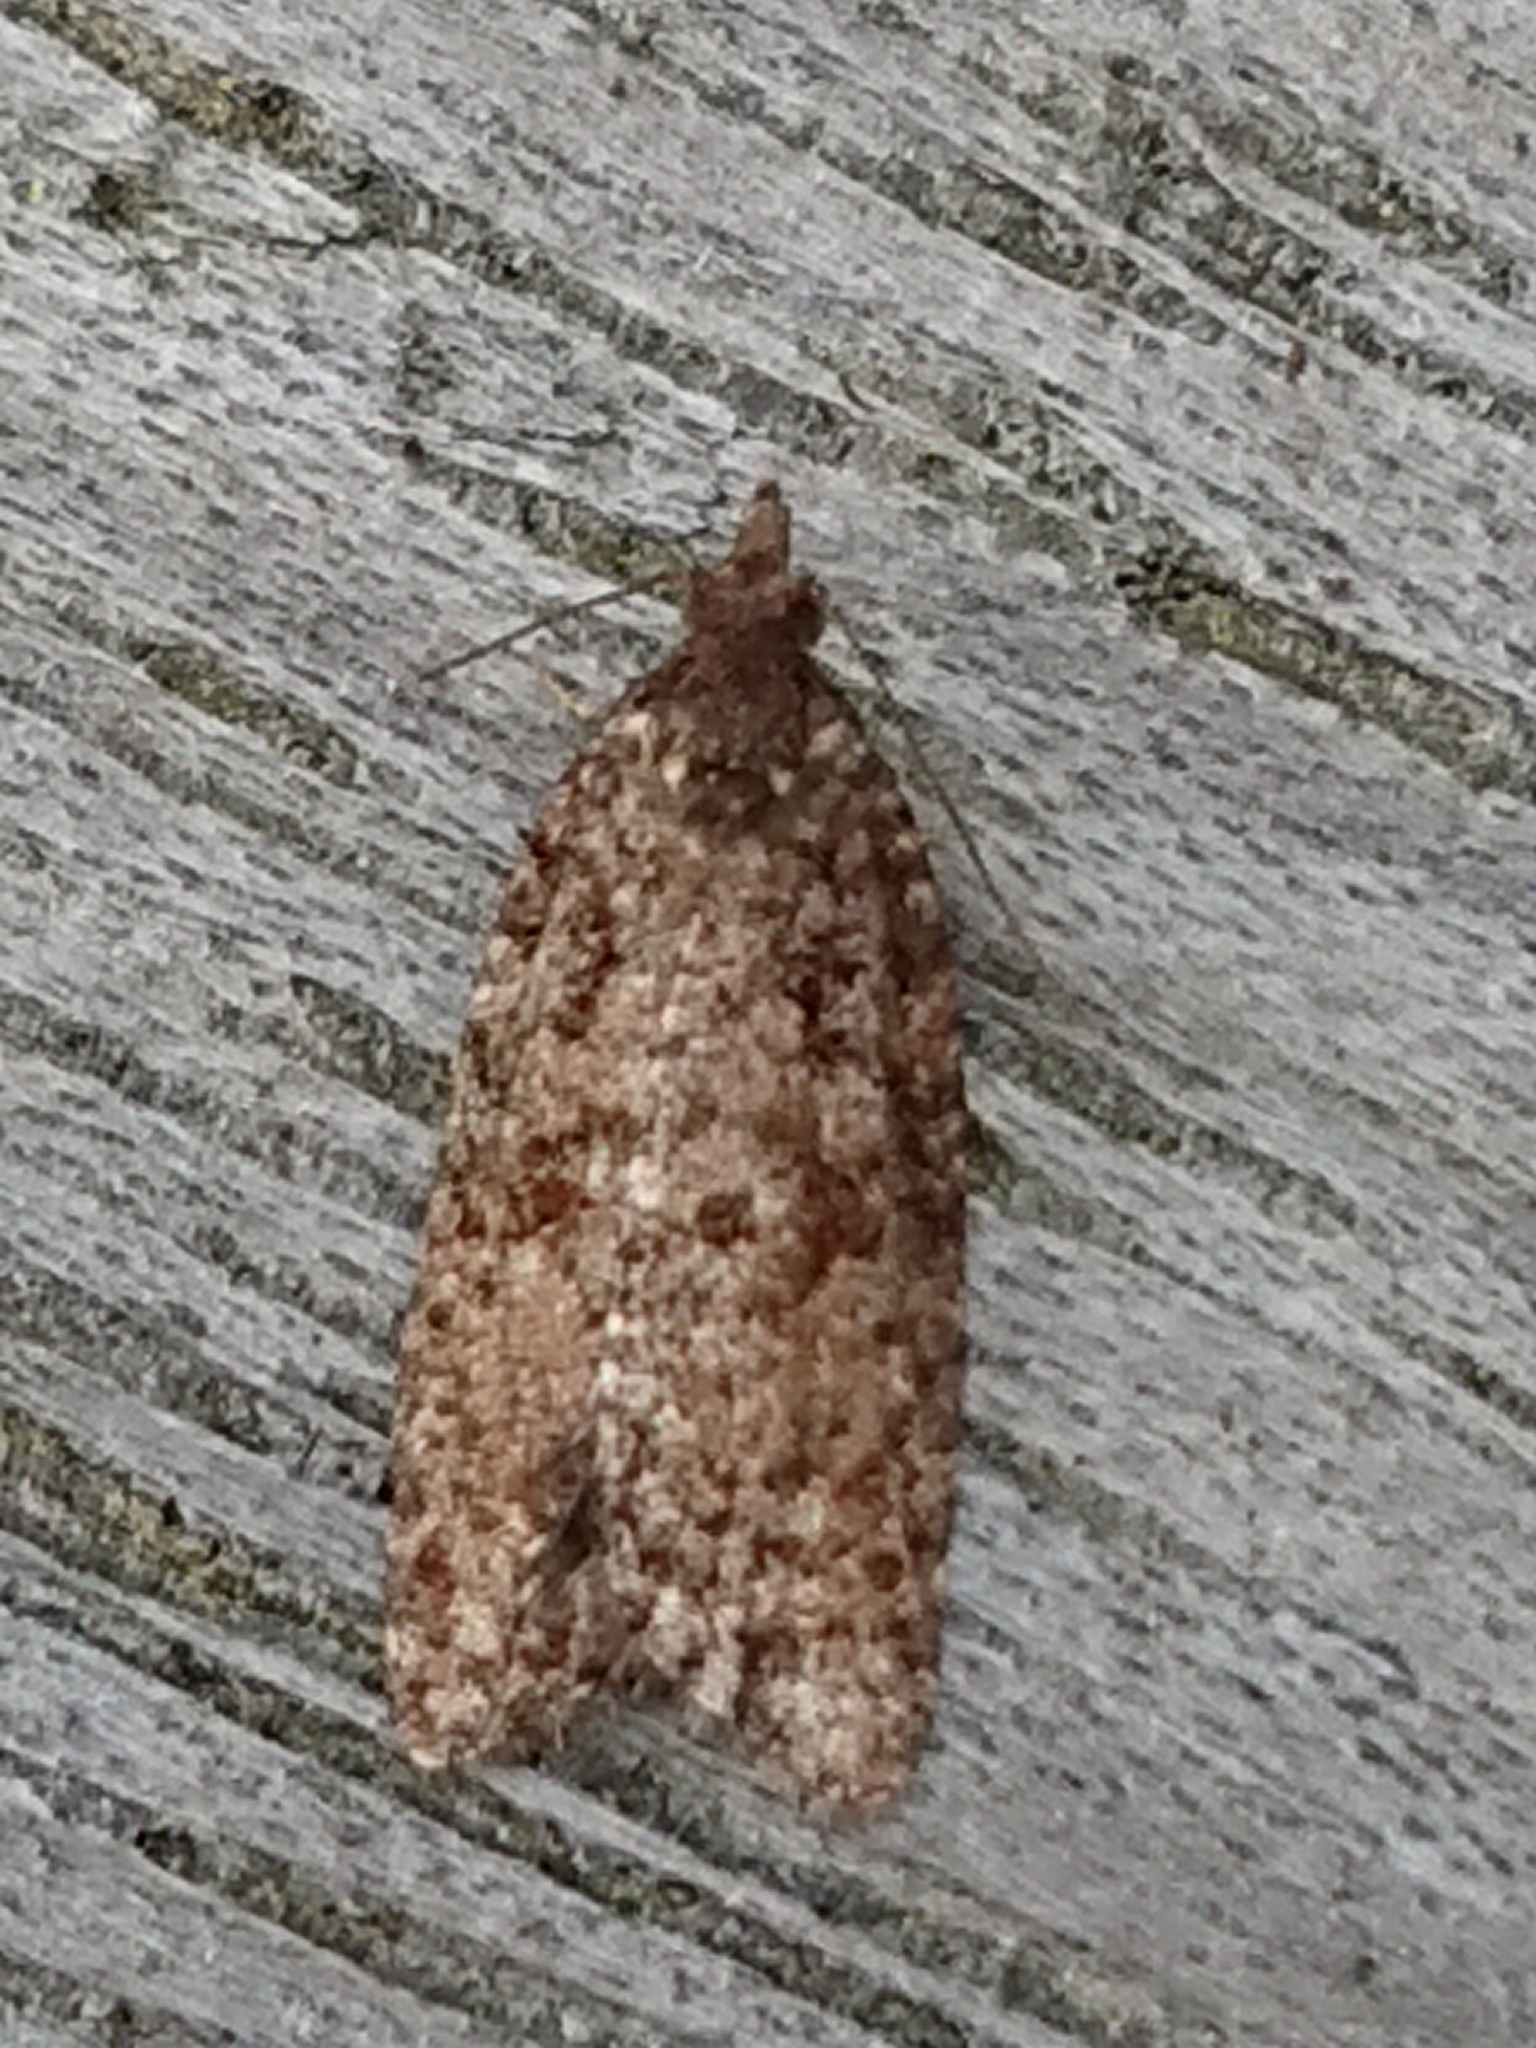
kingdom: Animalia
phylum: Arthropoda
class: Insecta
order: Lepidoptera
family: Tortricidae
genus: Capua
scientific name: Capua intractana
